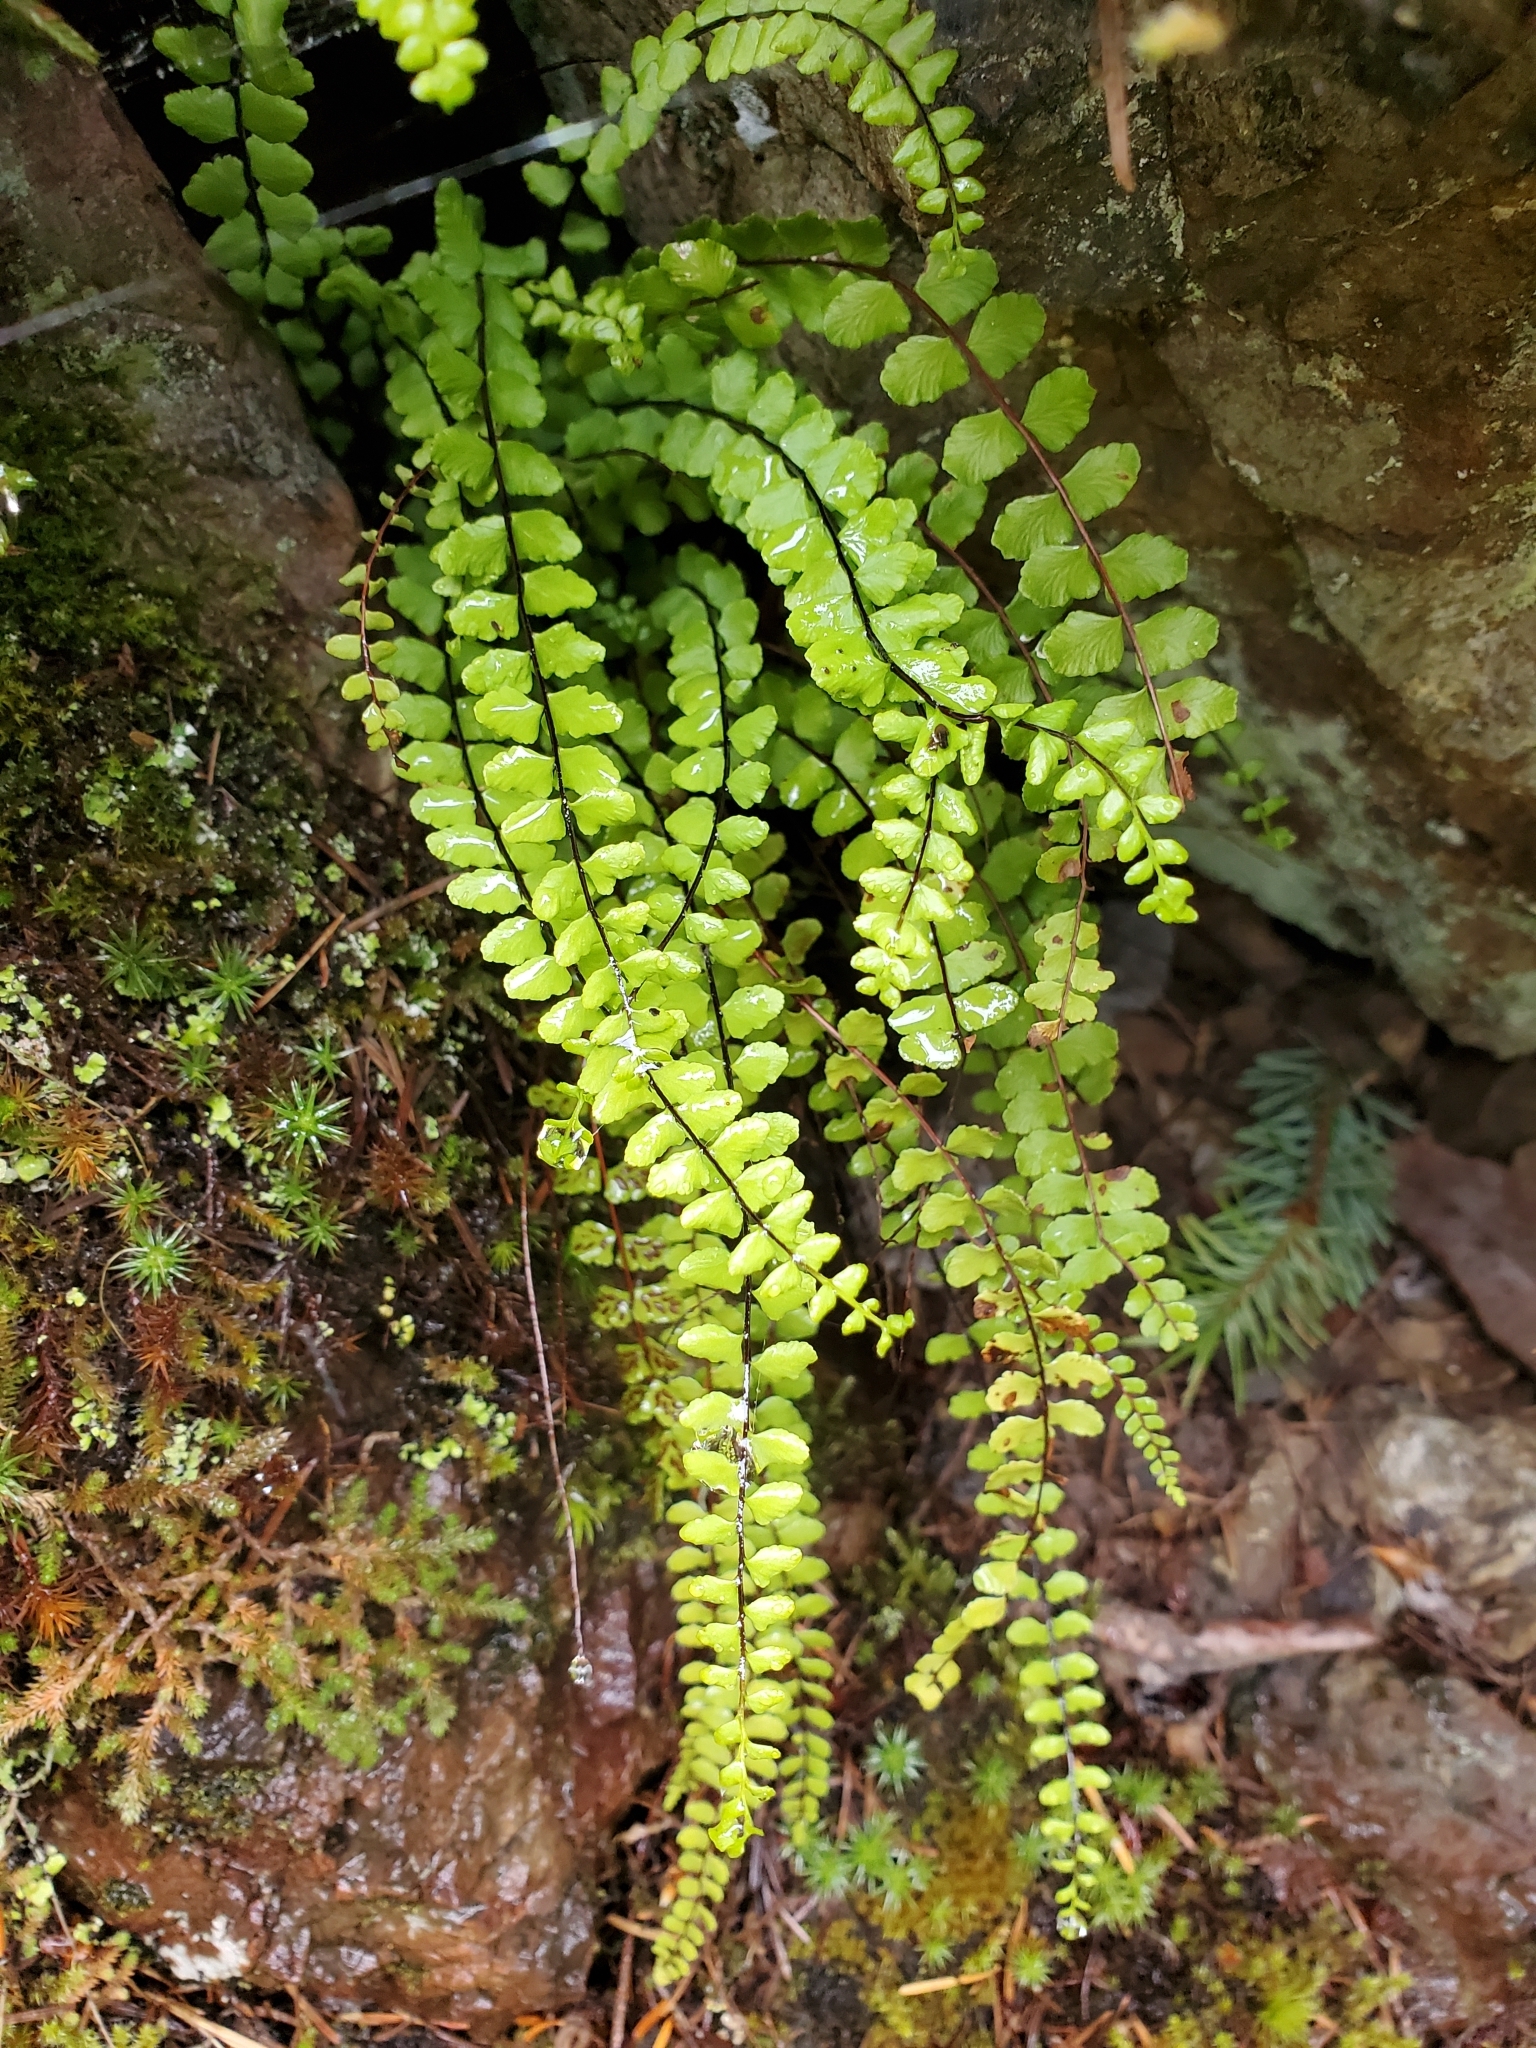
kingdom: Plantae
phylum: Tracheophyta
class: Polypodiopsida
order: Polypodiales
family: Aspleniaceae
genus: Asplenium
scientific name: Asplenium trichomanes
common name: Maidenhair spleenwort
